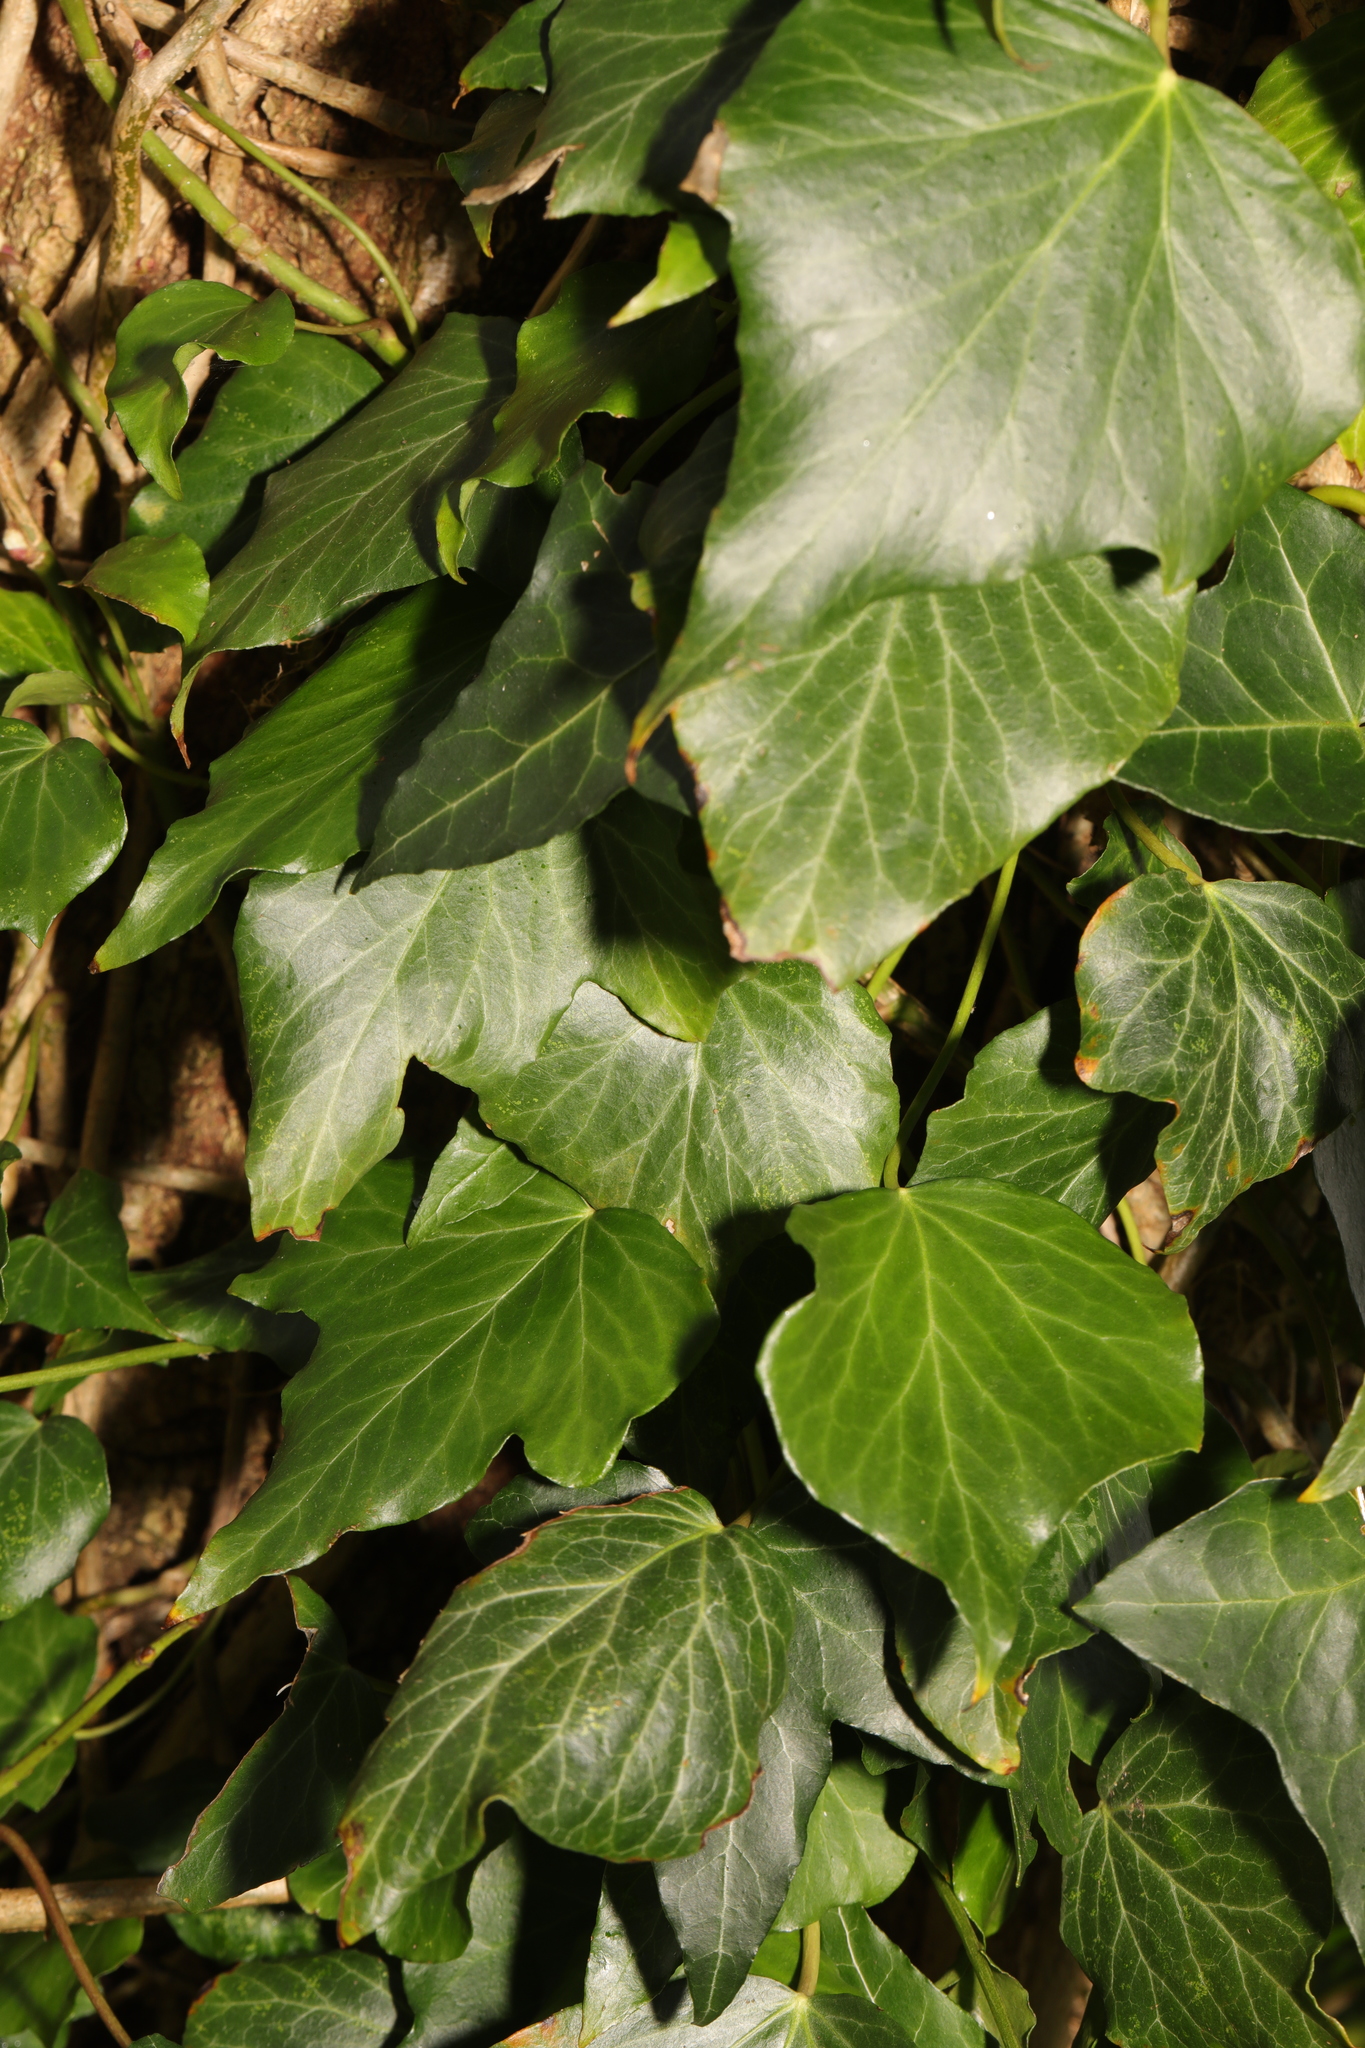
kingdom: Plantae
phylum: Tracheophyta
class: Magnoliopsida
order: Apiales
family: Araliaceae
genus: Hedera
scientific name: Hedera helix
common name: Ivy
